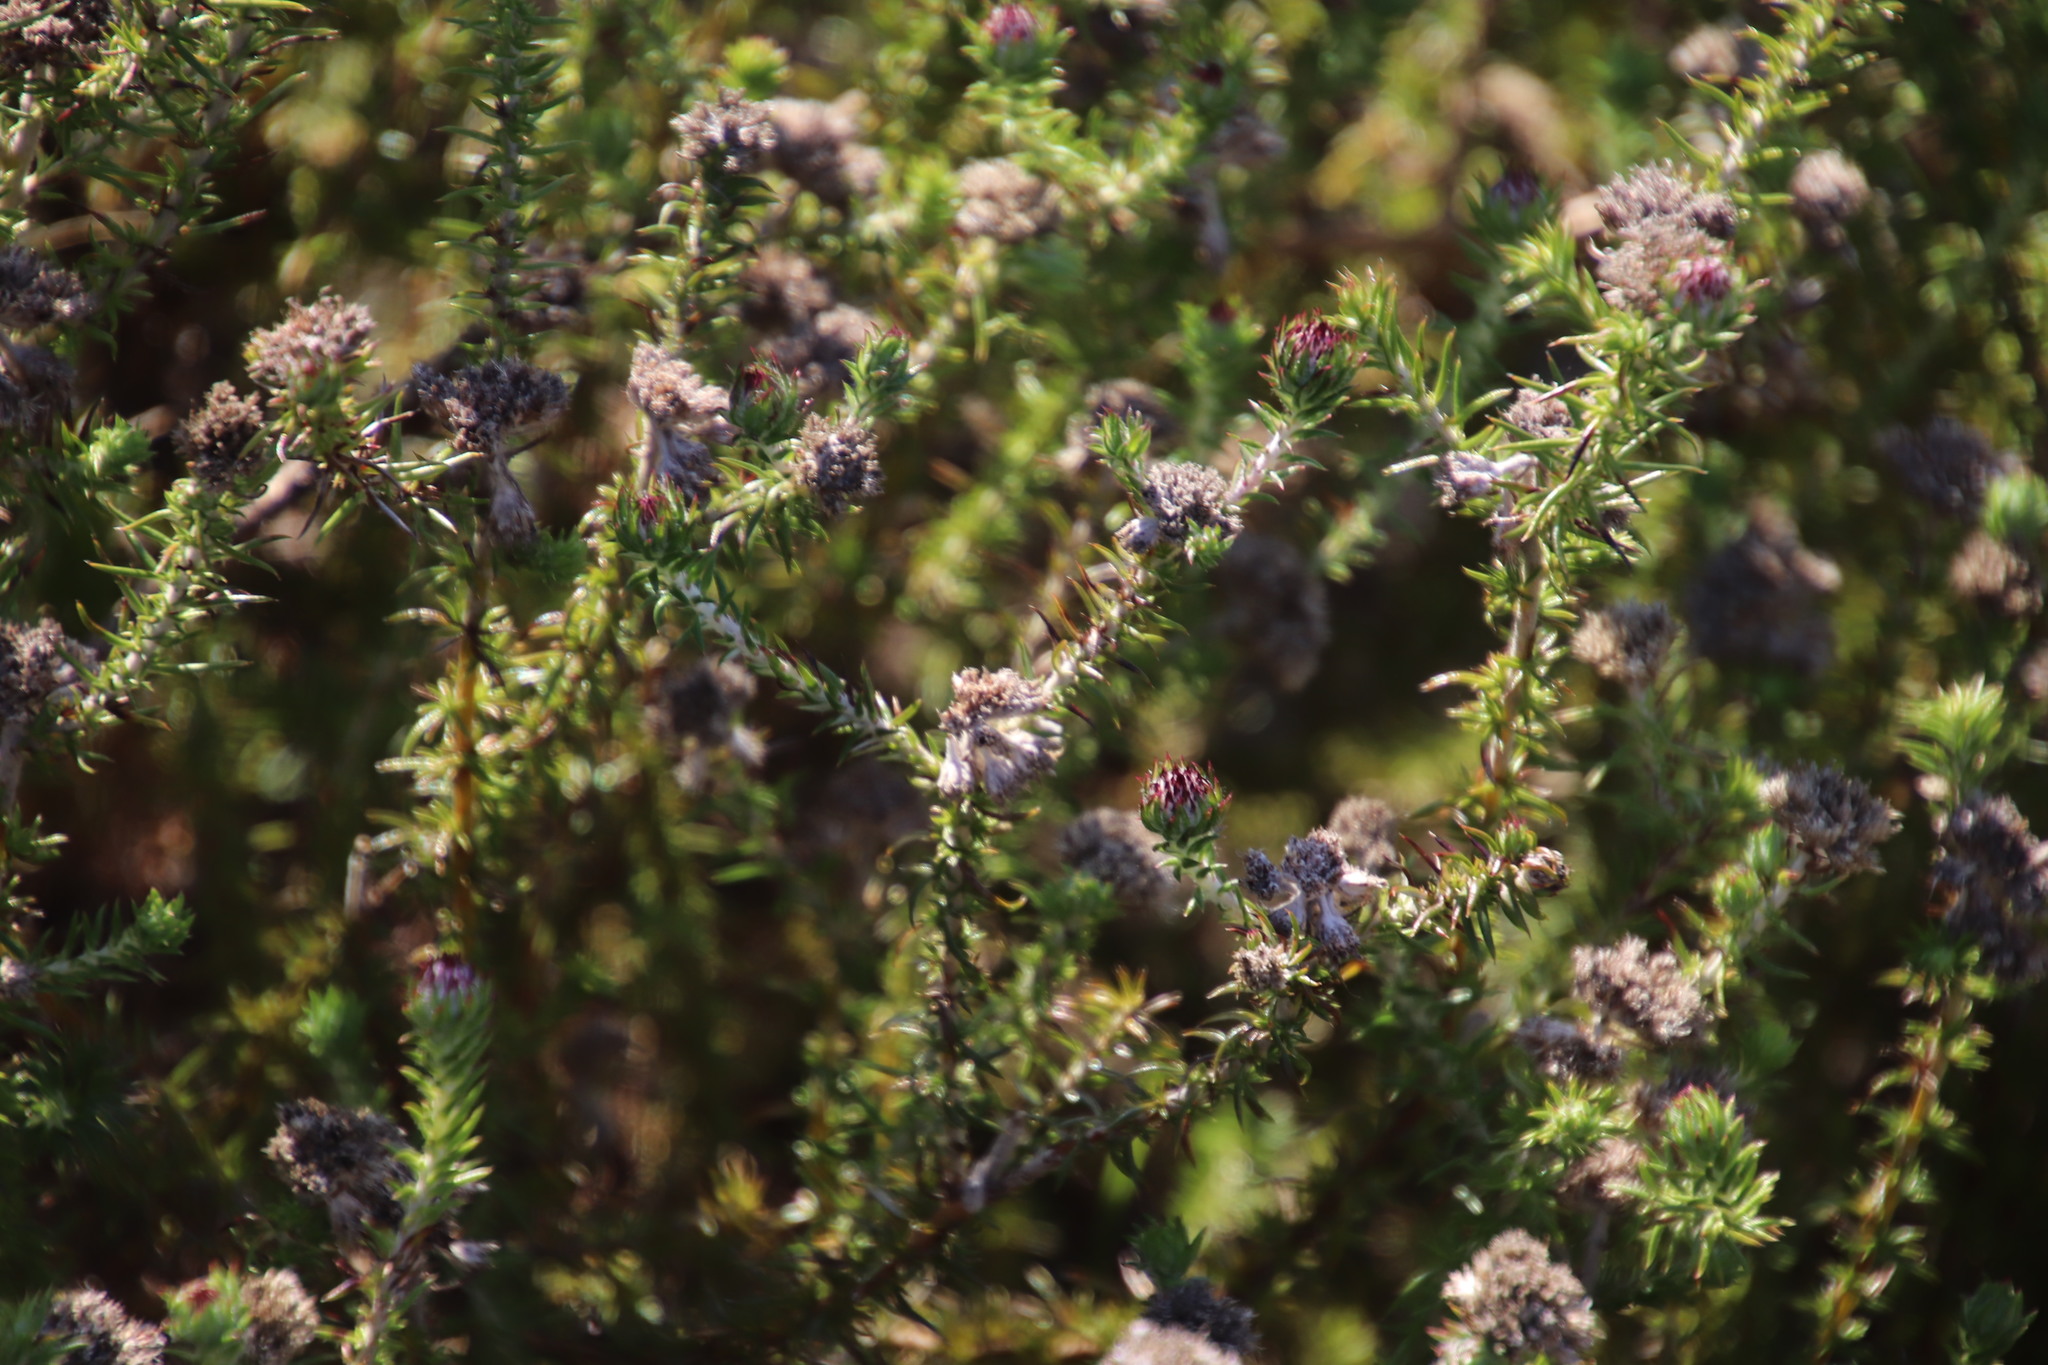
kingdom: Plantae
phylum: Tracheophyta
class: Magnoliopsida
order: Asterales
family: Asteraceae
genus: Metalasia
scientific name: Metalasia pulchella
